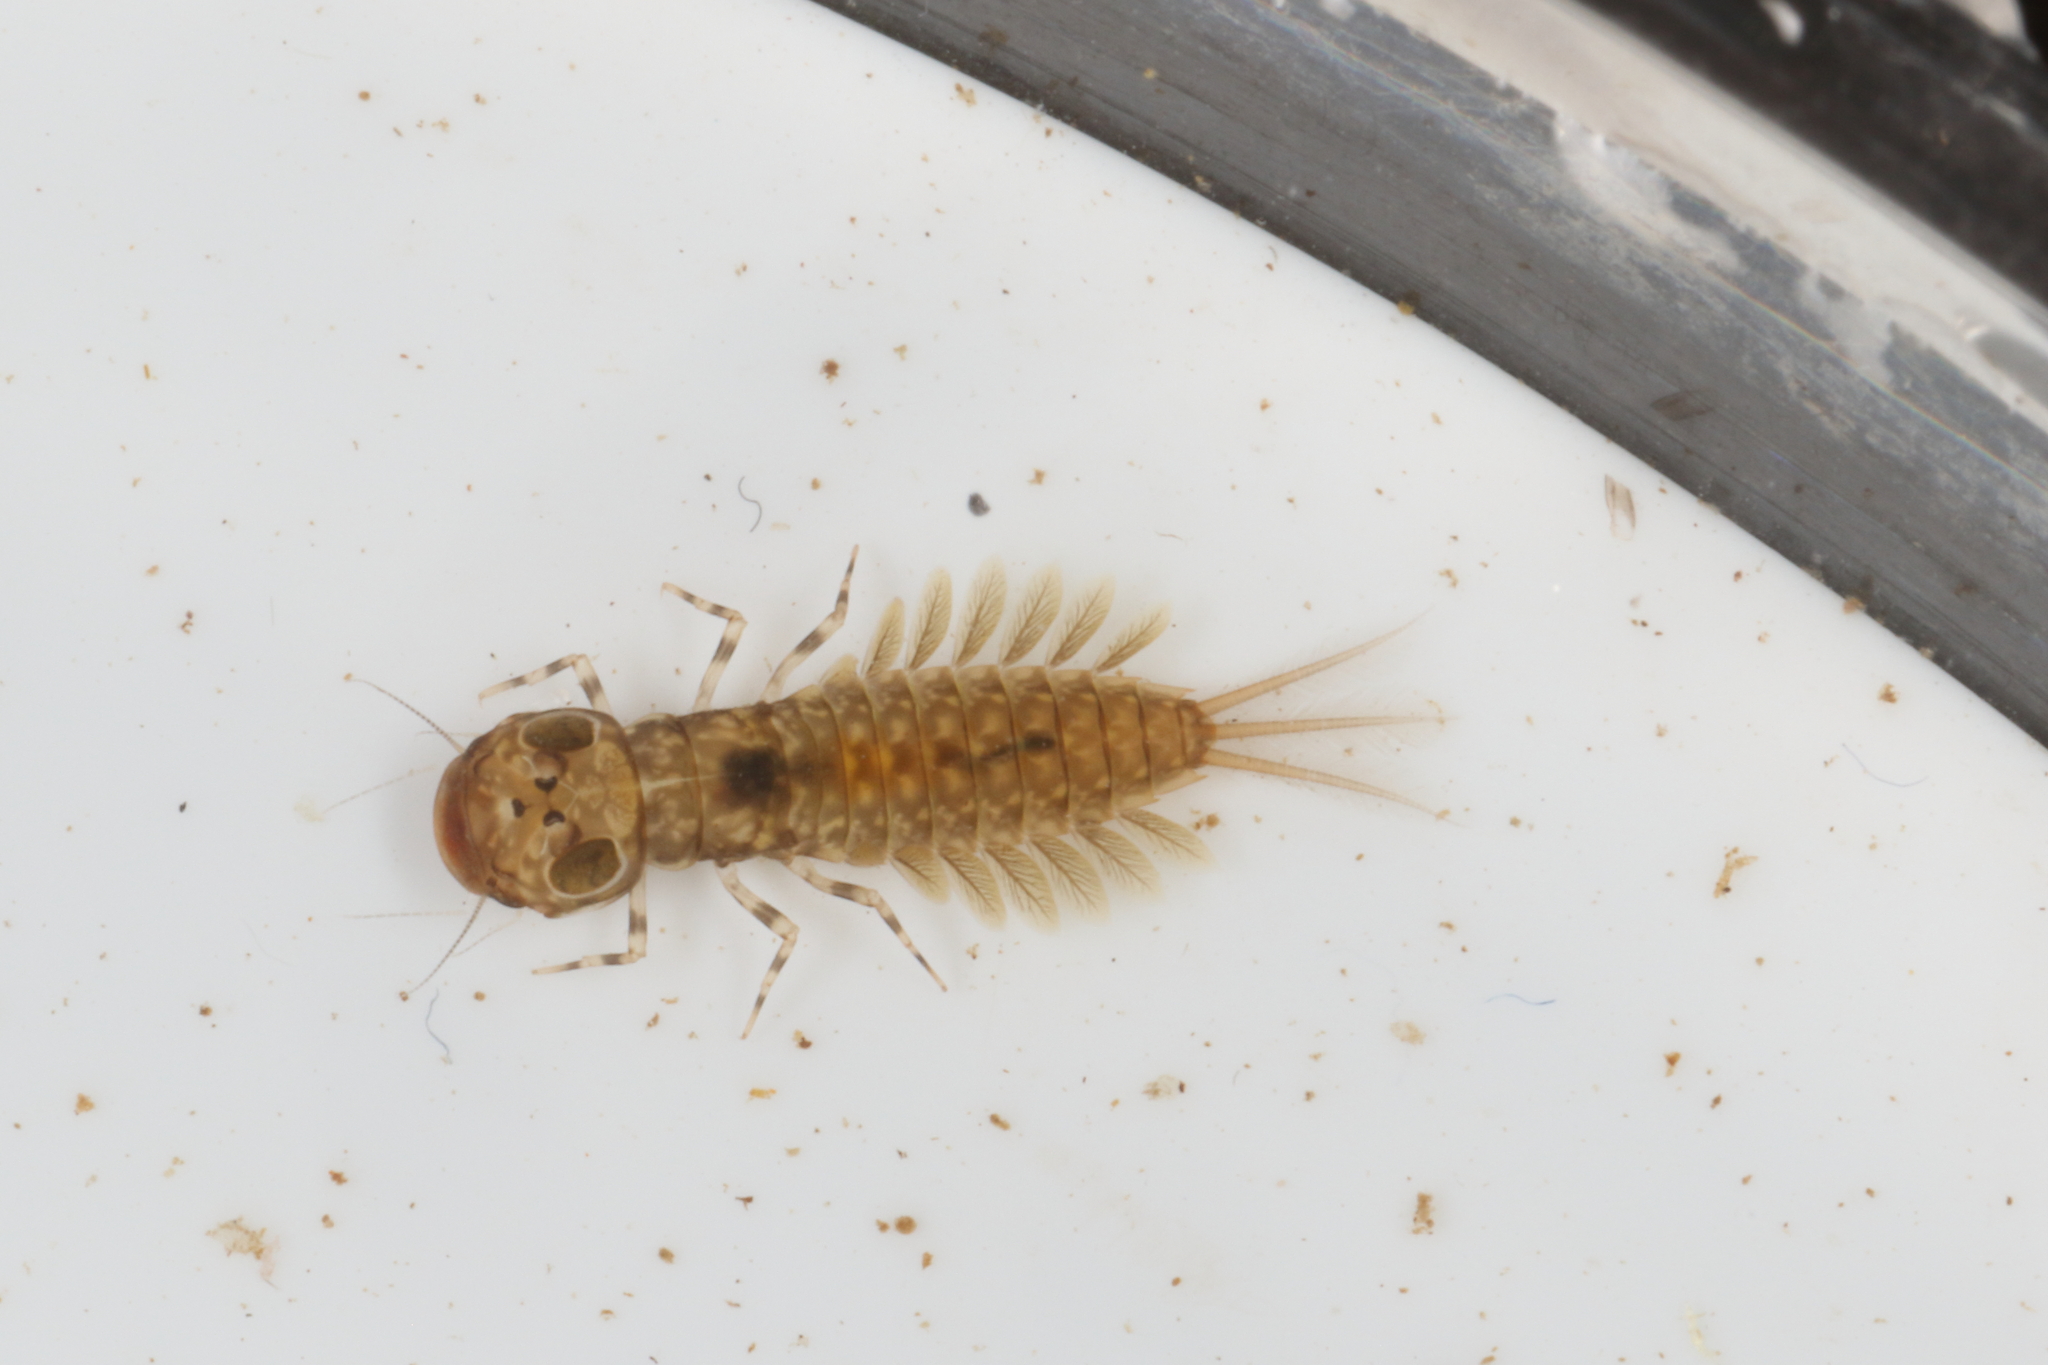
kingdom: Animalia
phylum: Arthropoda
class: Insecta
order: Ephemeroptera
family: Ameletopsidae
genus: Ameletopsis
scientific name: Ameletopsis perscitus
